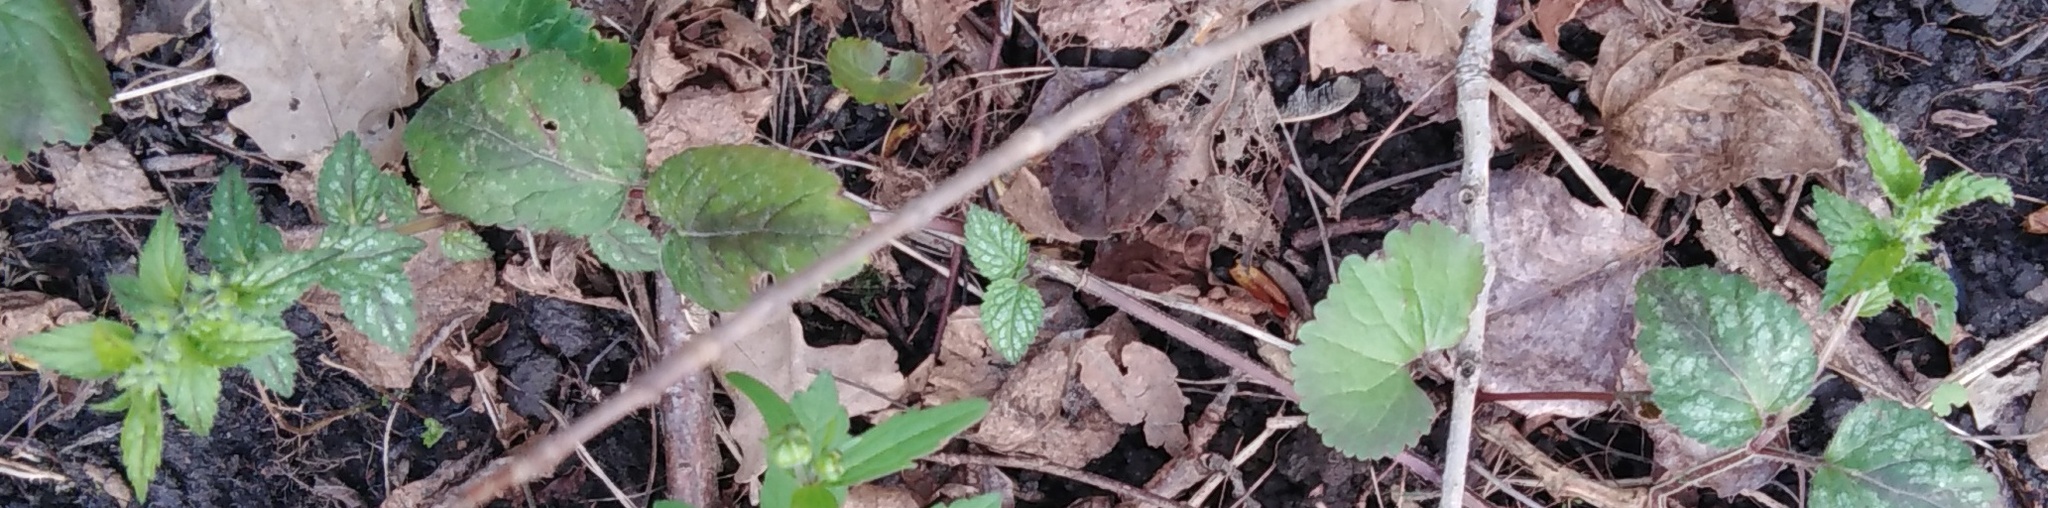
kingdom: Plantae
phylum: Tracheophyta
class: Magnoliopsida
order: Lamiales
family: Lamiaceae
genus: Lamium
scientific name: Lamium galeobdolon
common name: Yellow archangel
